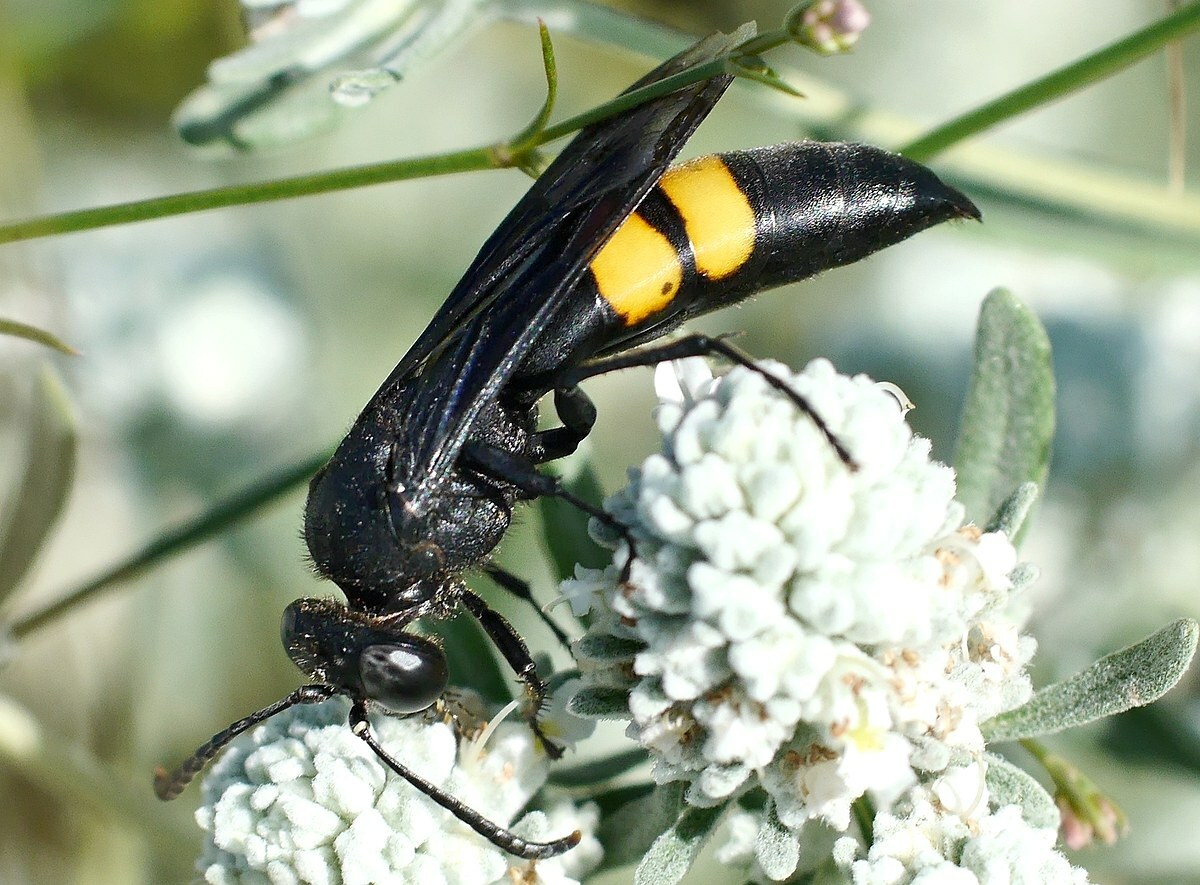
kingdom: Animalia
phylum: Arthropoda
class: Insecta
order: Hymenoptera
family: Crabronidae
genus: Stizoides
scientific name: Stizoides tridentatus
